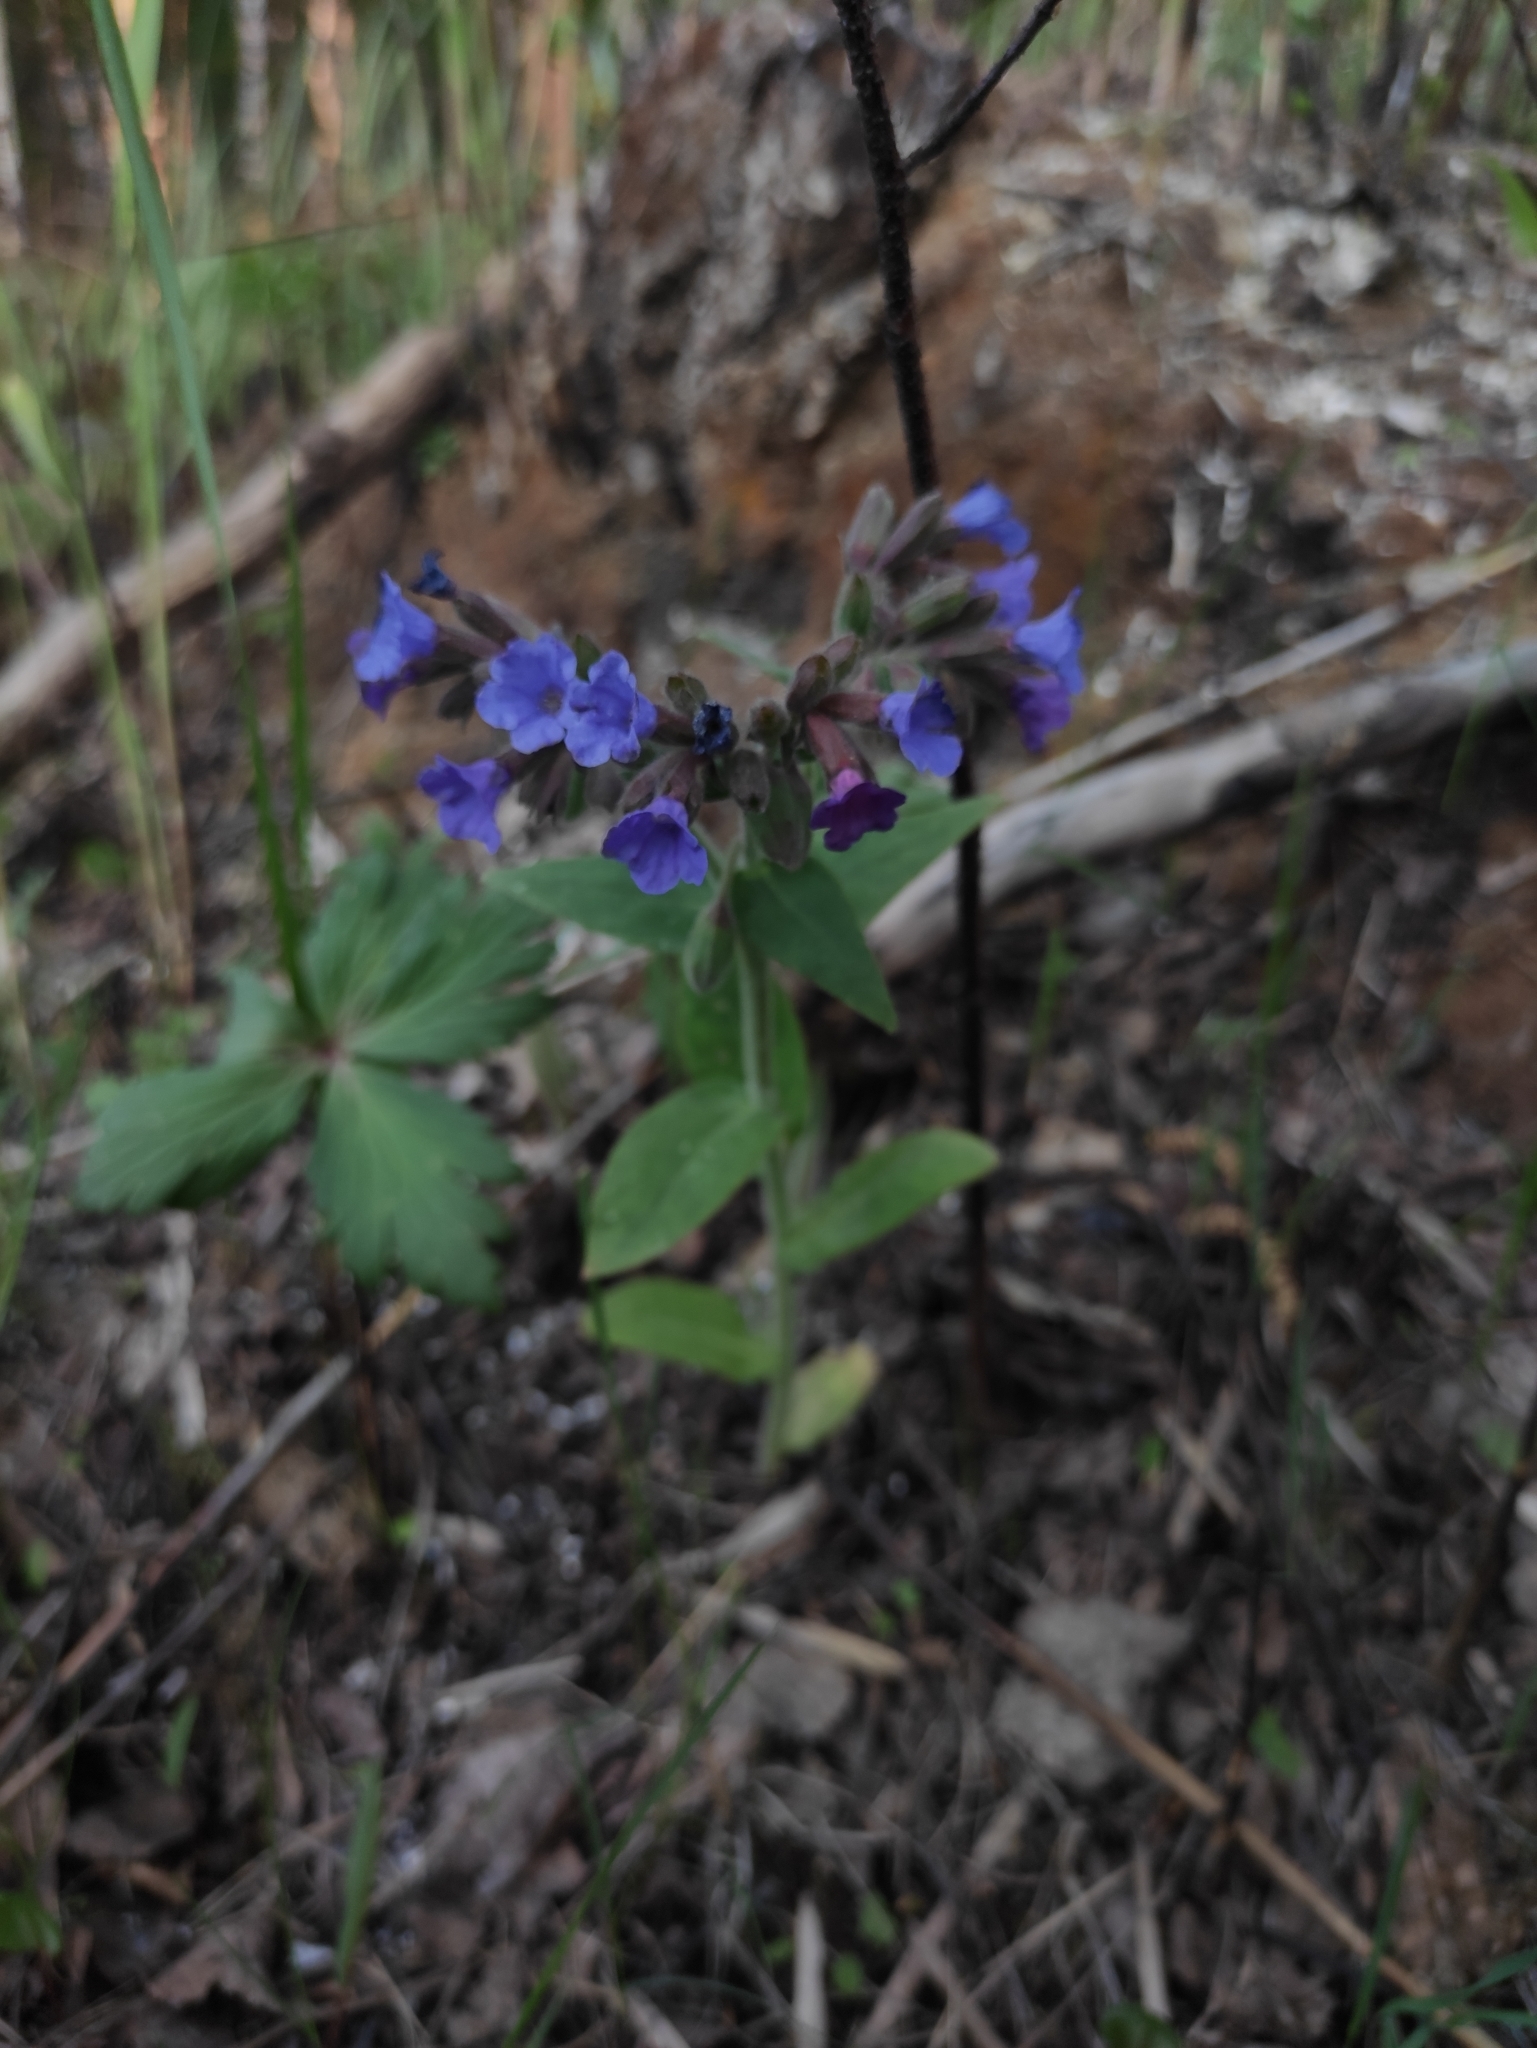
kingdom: Plantae
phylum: Tracheophyta
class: Magnoliopsida
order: Boraginales
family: Boraginaceae
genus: Pulmonaria
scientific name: Pulmonaria mollis
